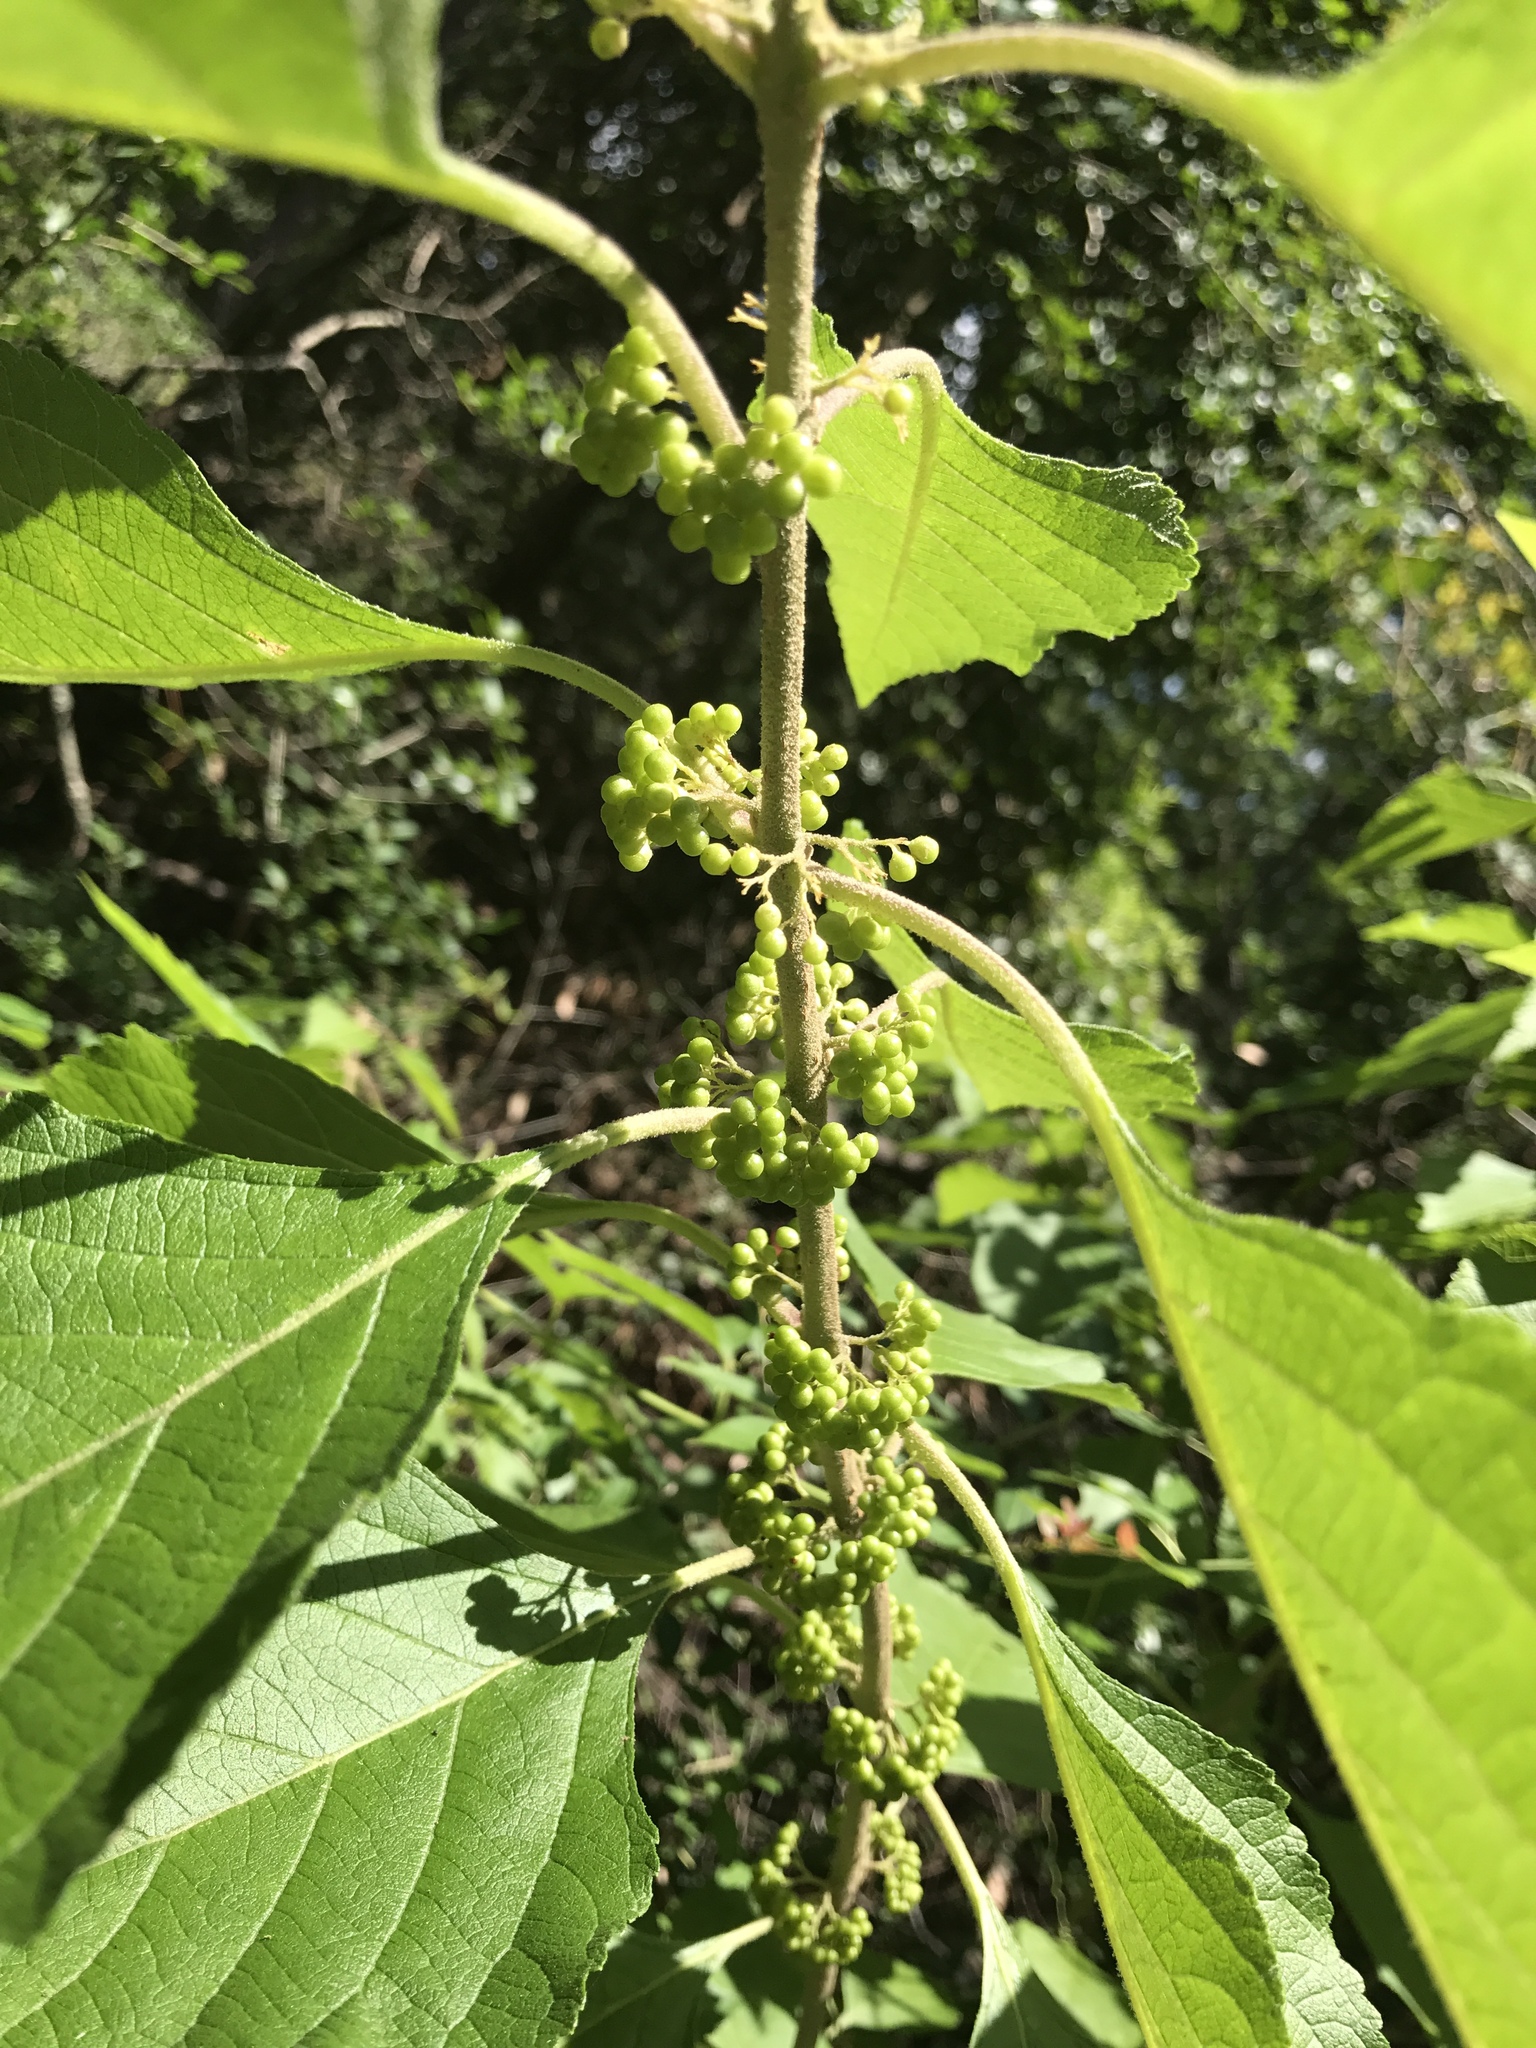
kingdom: Plantae
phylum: Tracheophyta
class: Magnoliopsida
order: Lamiales
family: Lamiaceae
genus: Callicarpa
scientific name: Callicarpa americana
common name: American beautyberry
